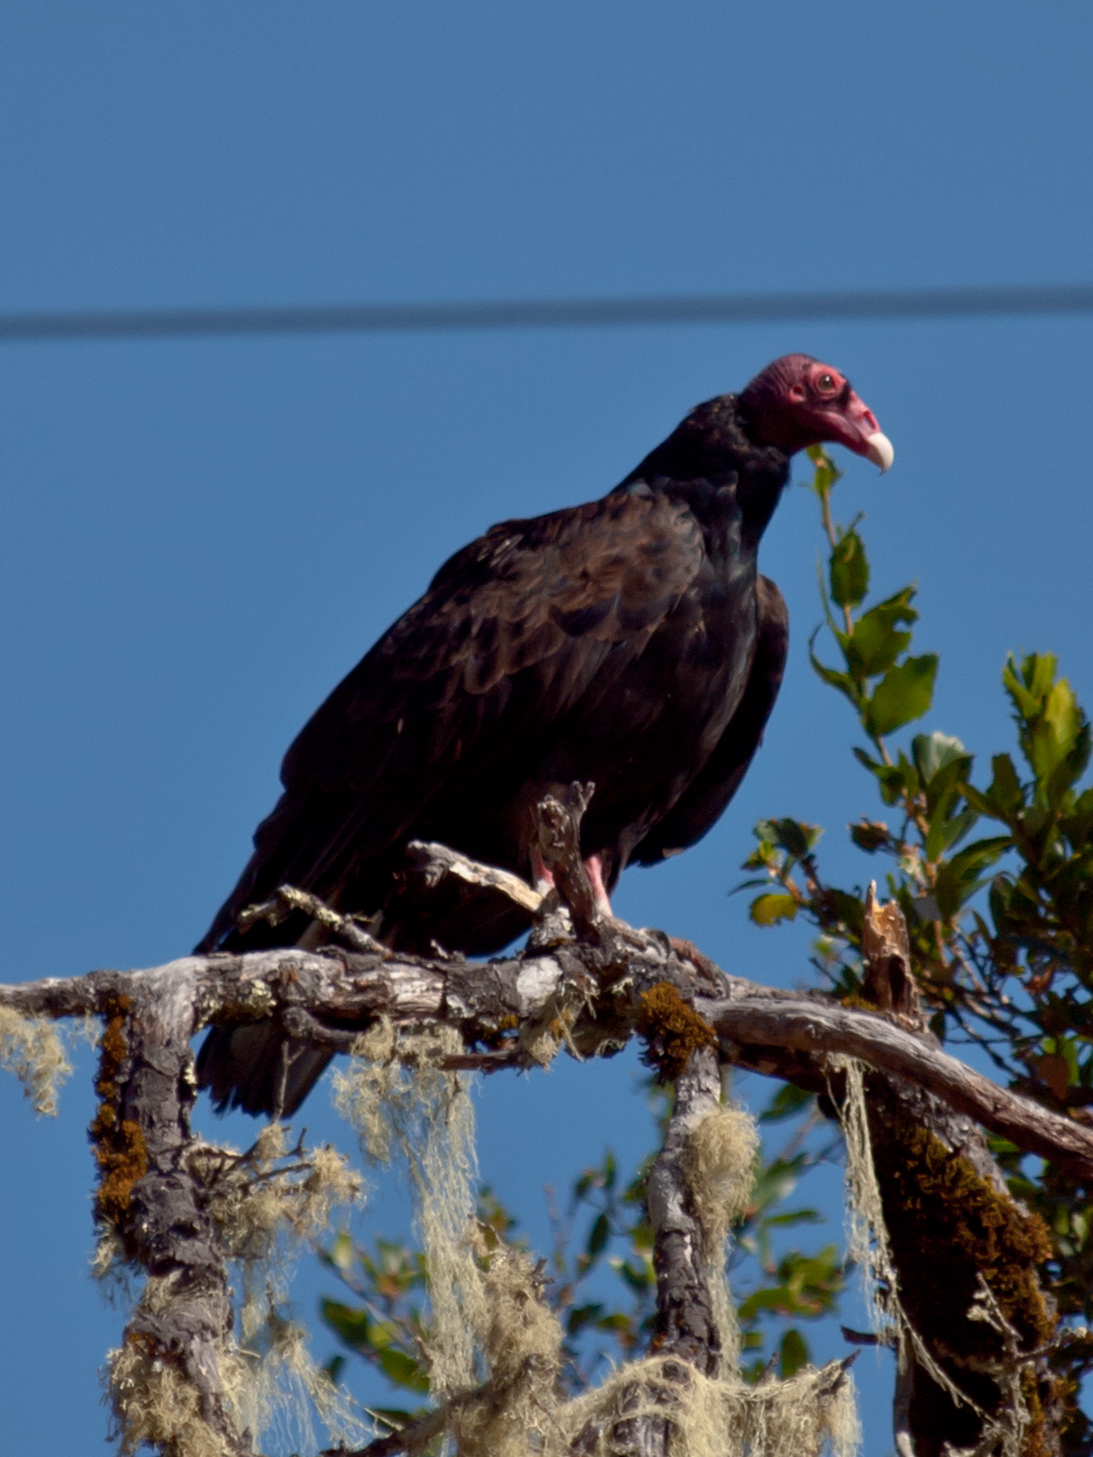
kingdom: Animalia
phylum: Chordata
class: Aves
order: Accipitriformes
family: Cathartidae
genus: Cathartes
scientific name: Cathartes aura
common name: Turkey vulture
